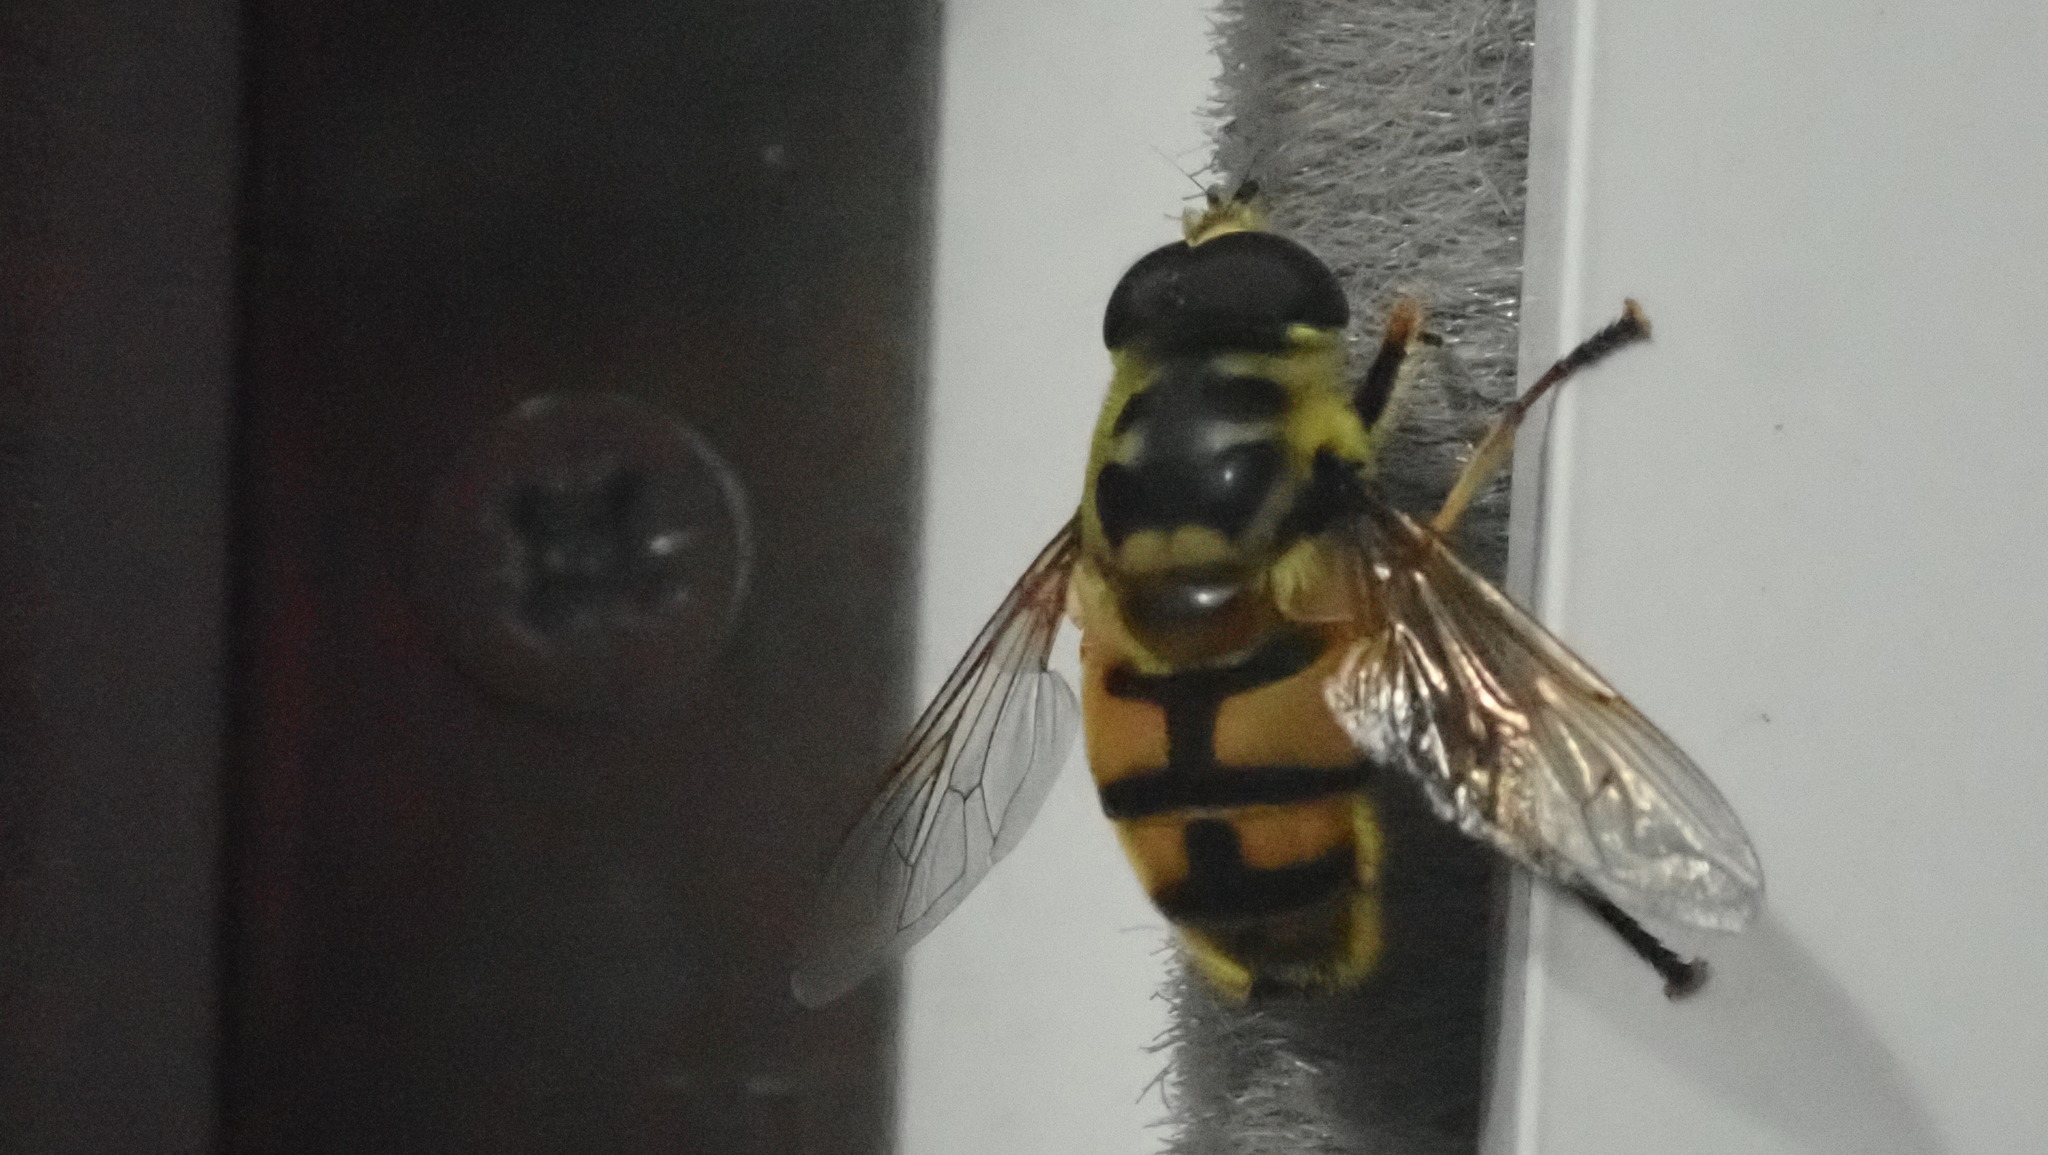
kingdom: Animalia
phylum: Arthropoda
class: Insecta
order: Diptera
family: Syrphidae
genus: Myathropa
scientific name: Myathropa florea
